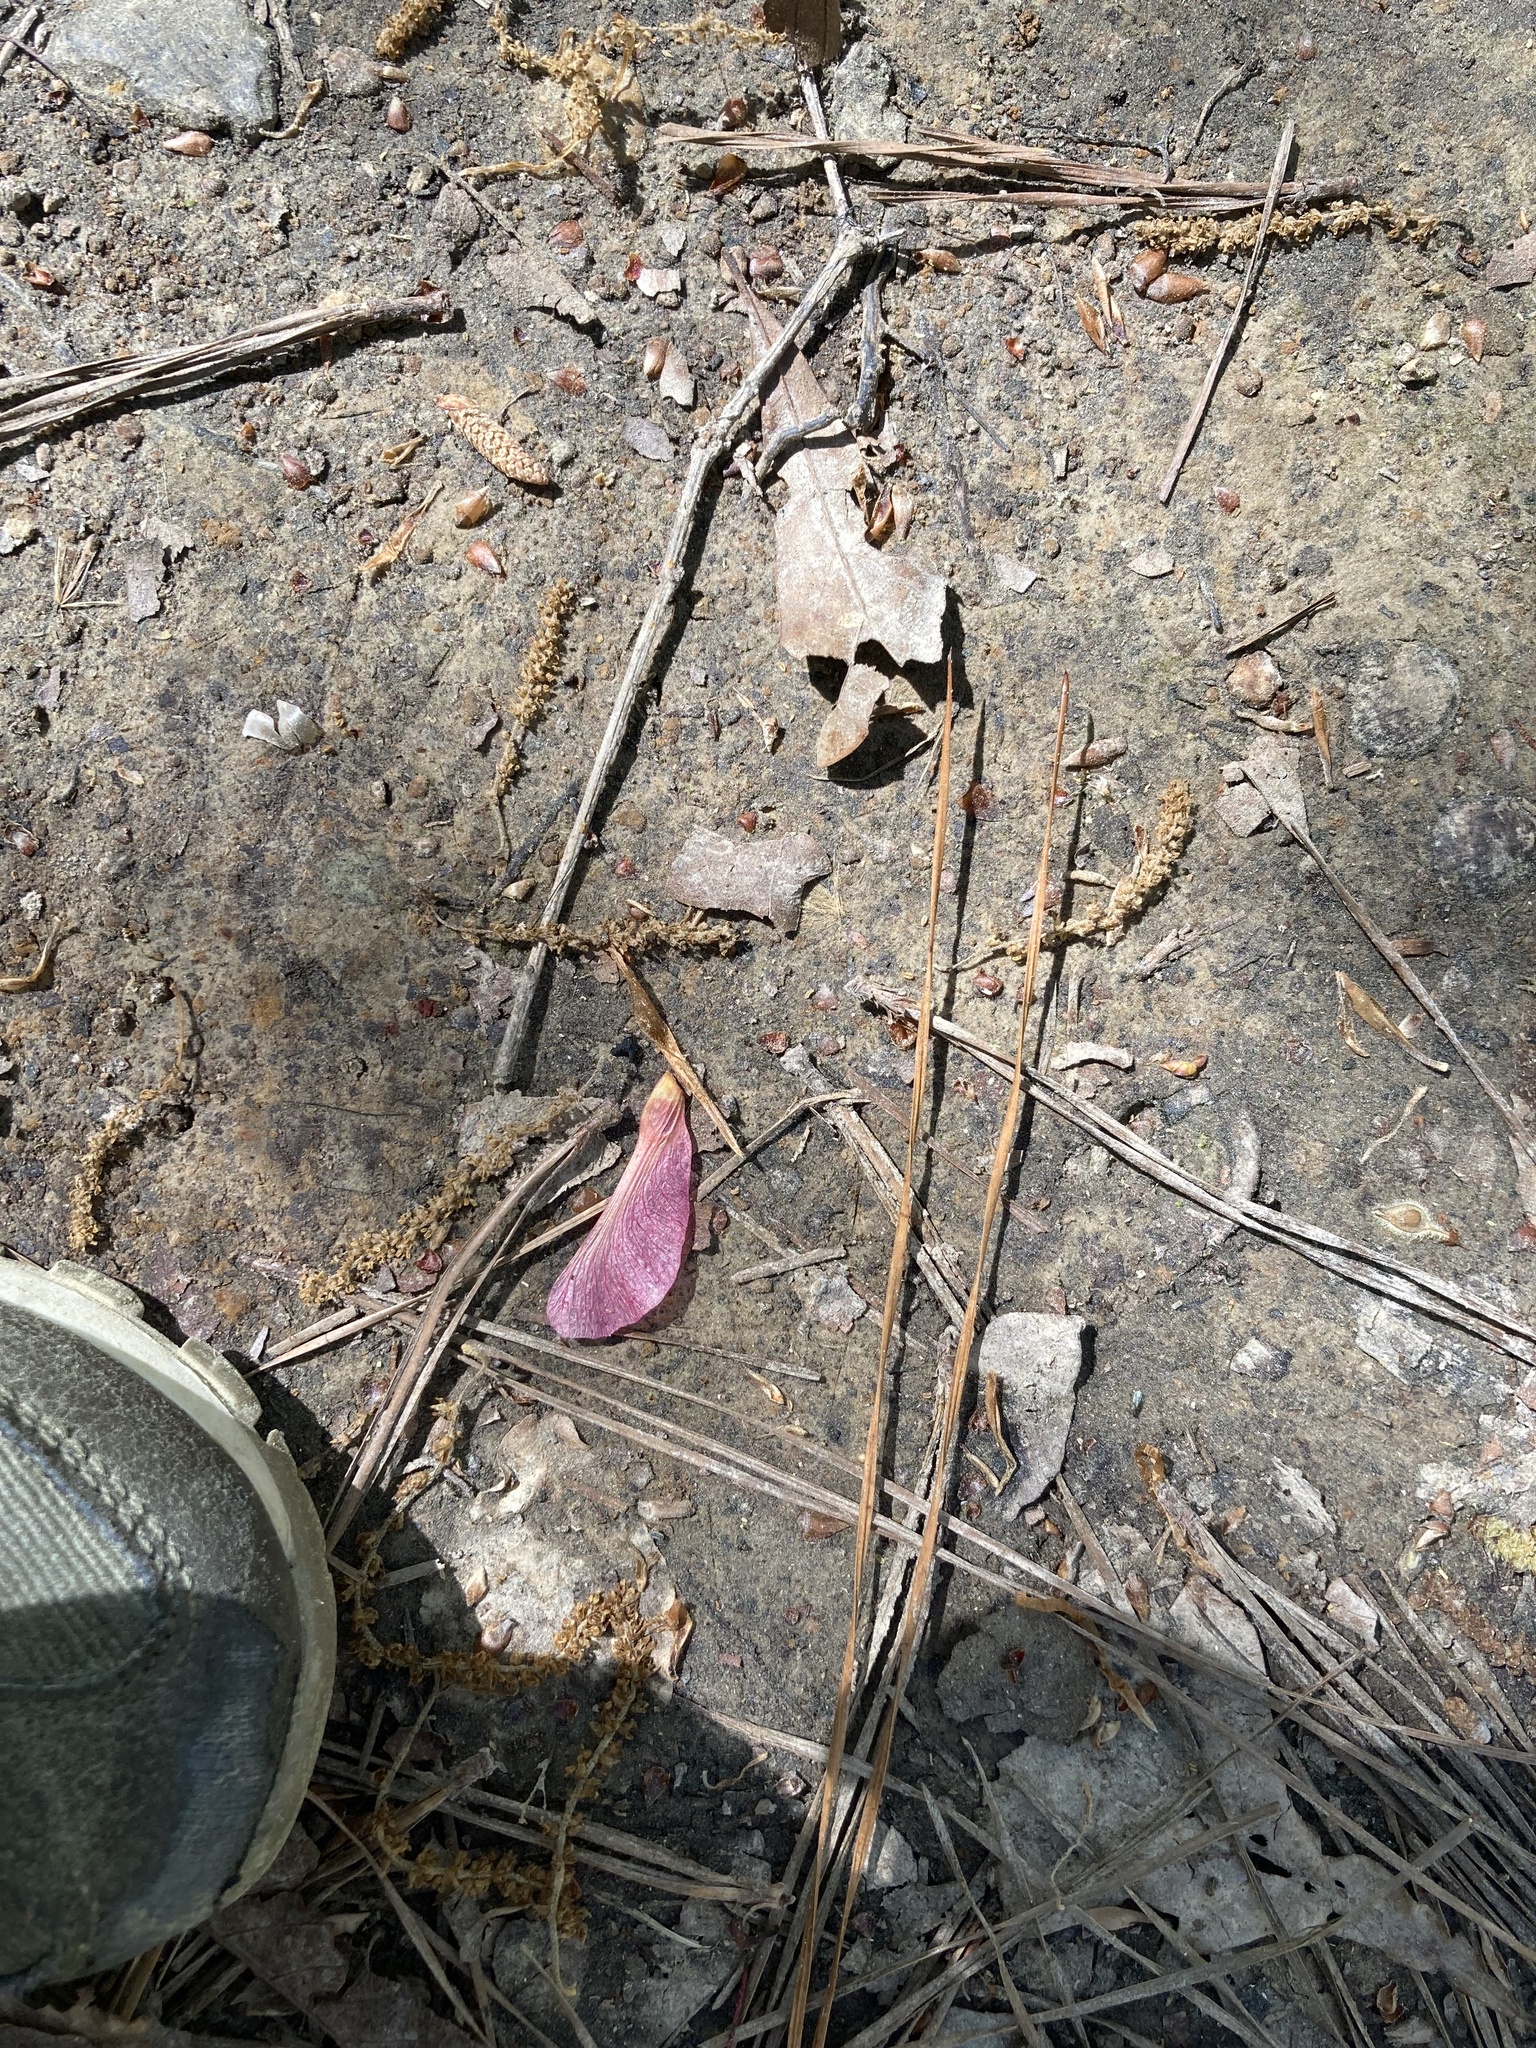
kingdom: Plantae
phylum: Tracheophyta
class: Magnoliopsida
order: Sapindales
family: Sapindaceae
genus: Acer
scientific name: Acer rubrum
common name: Red maple
